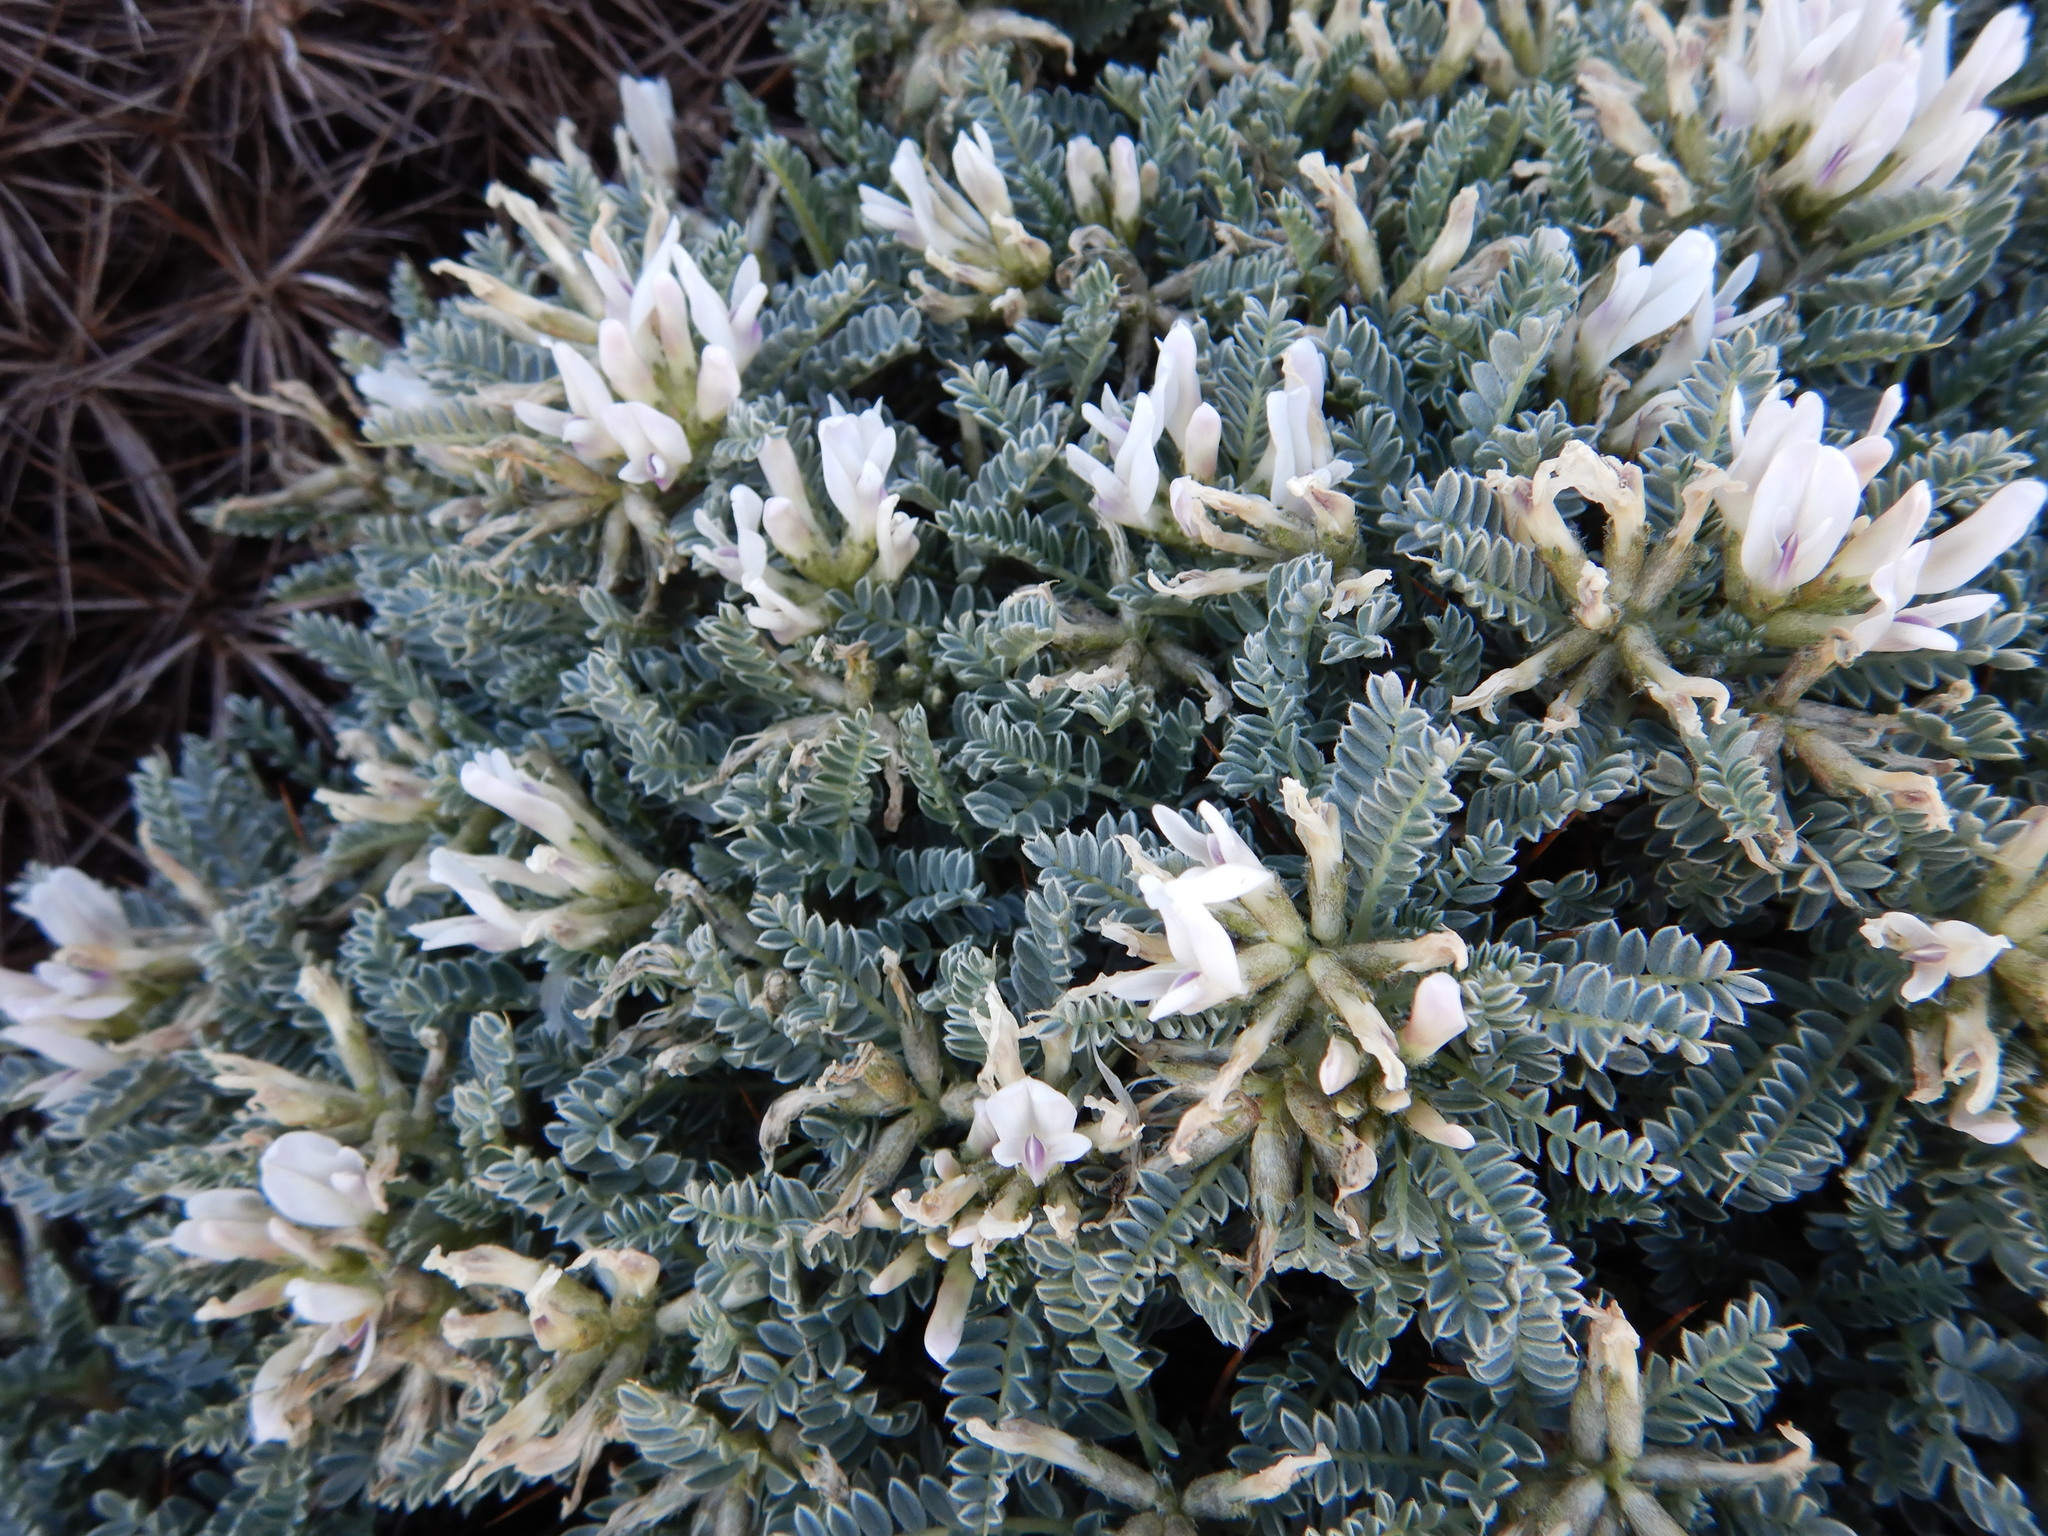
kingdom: Plantae
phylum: Tracheophyta
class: Magnoliopsida
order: Fabales
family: Fabaceae
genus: Astragalus
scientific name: Astragalus tragacantha
